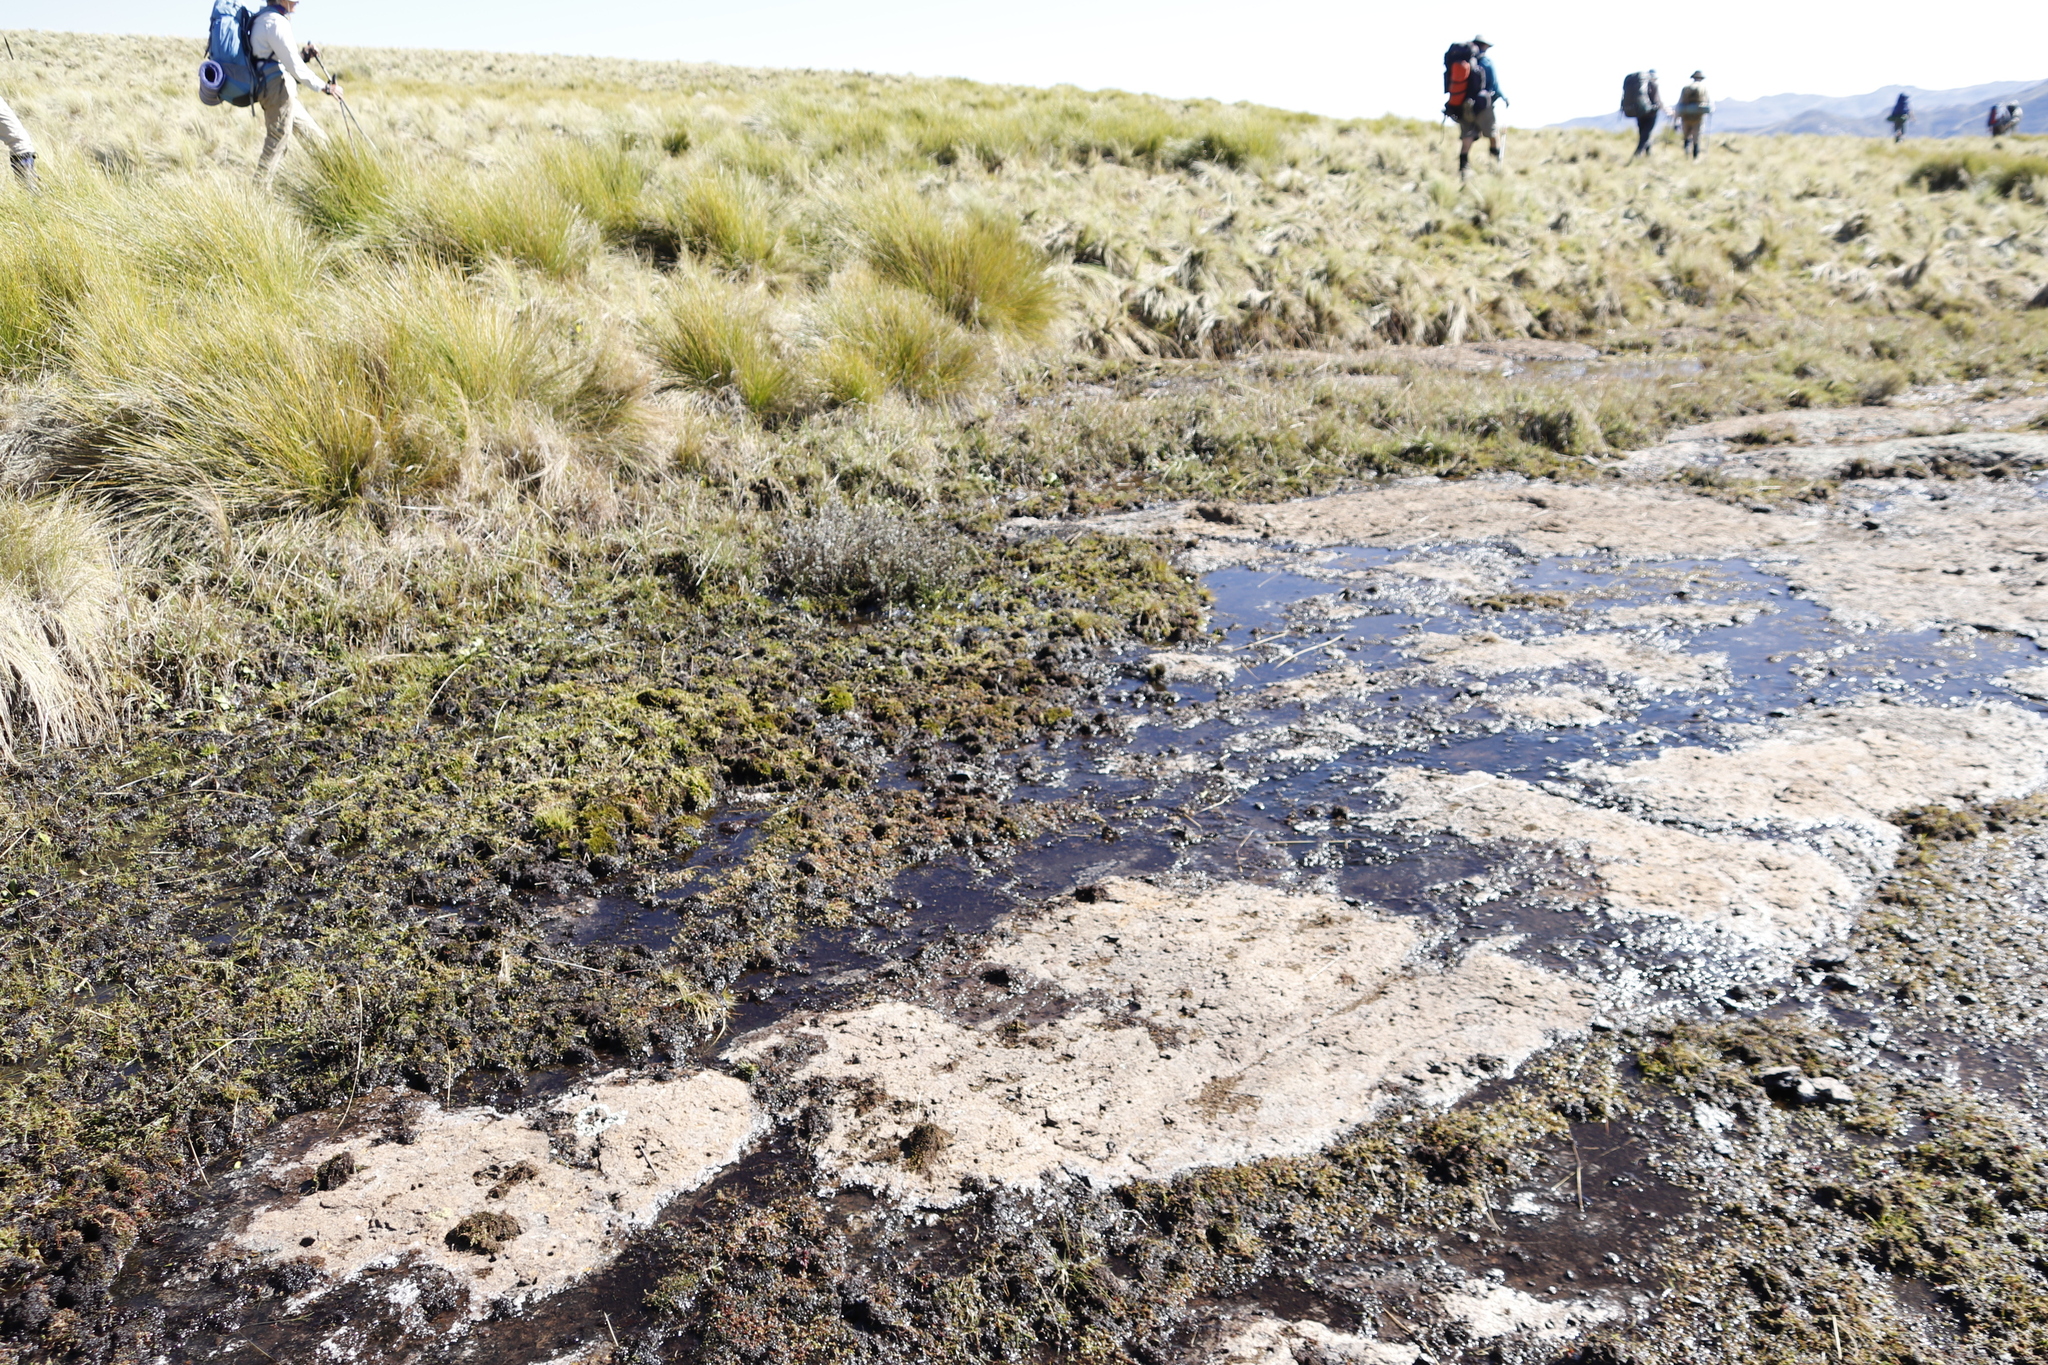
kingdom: Plantae
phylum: Tracheophyta
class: Magnoliopsida
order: Saxifragales
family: Crassulaceae
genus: Crassula
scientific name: Crassula dependens
